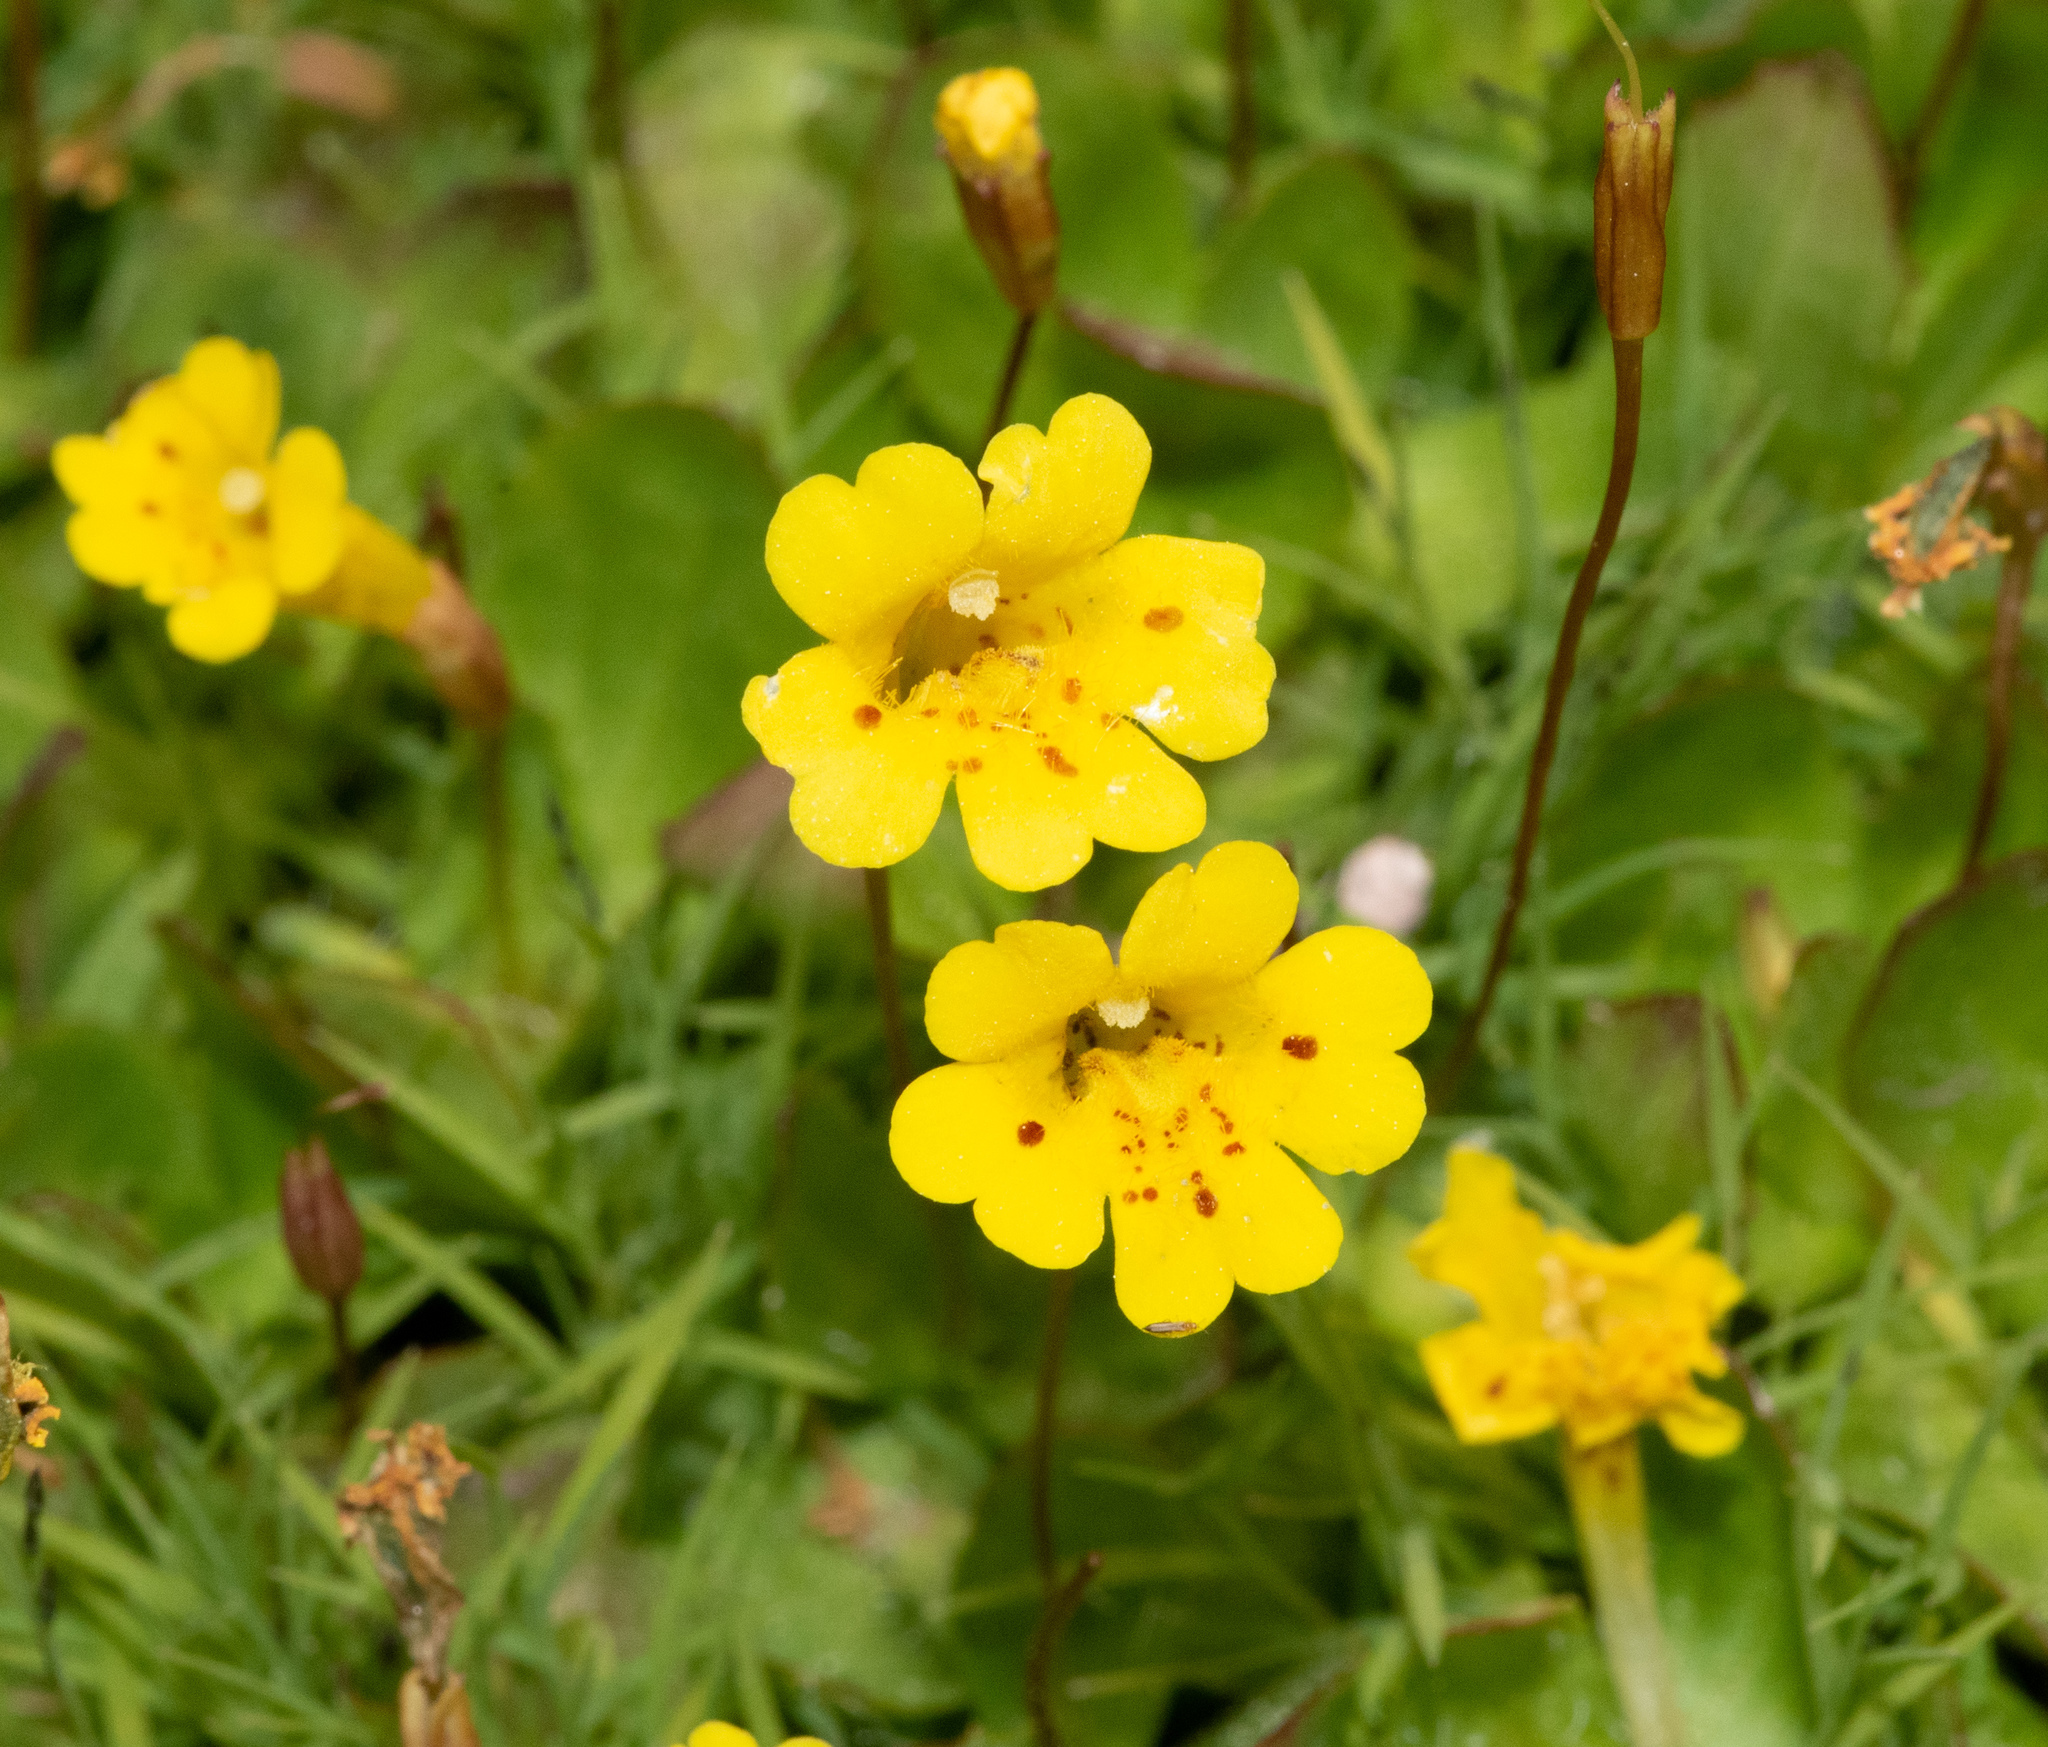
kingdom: Plantae
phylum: Tracheophyta
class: Magnoliopsida
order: Lamiales
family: Phrymaceae
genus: Erythranthe
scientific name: Erythranthe primuloides
